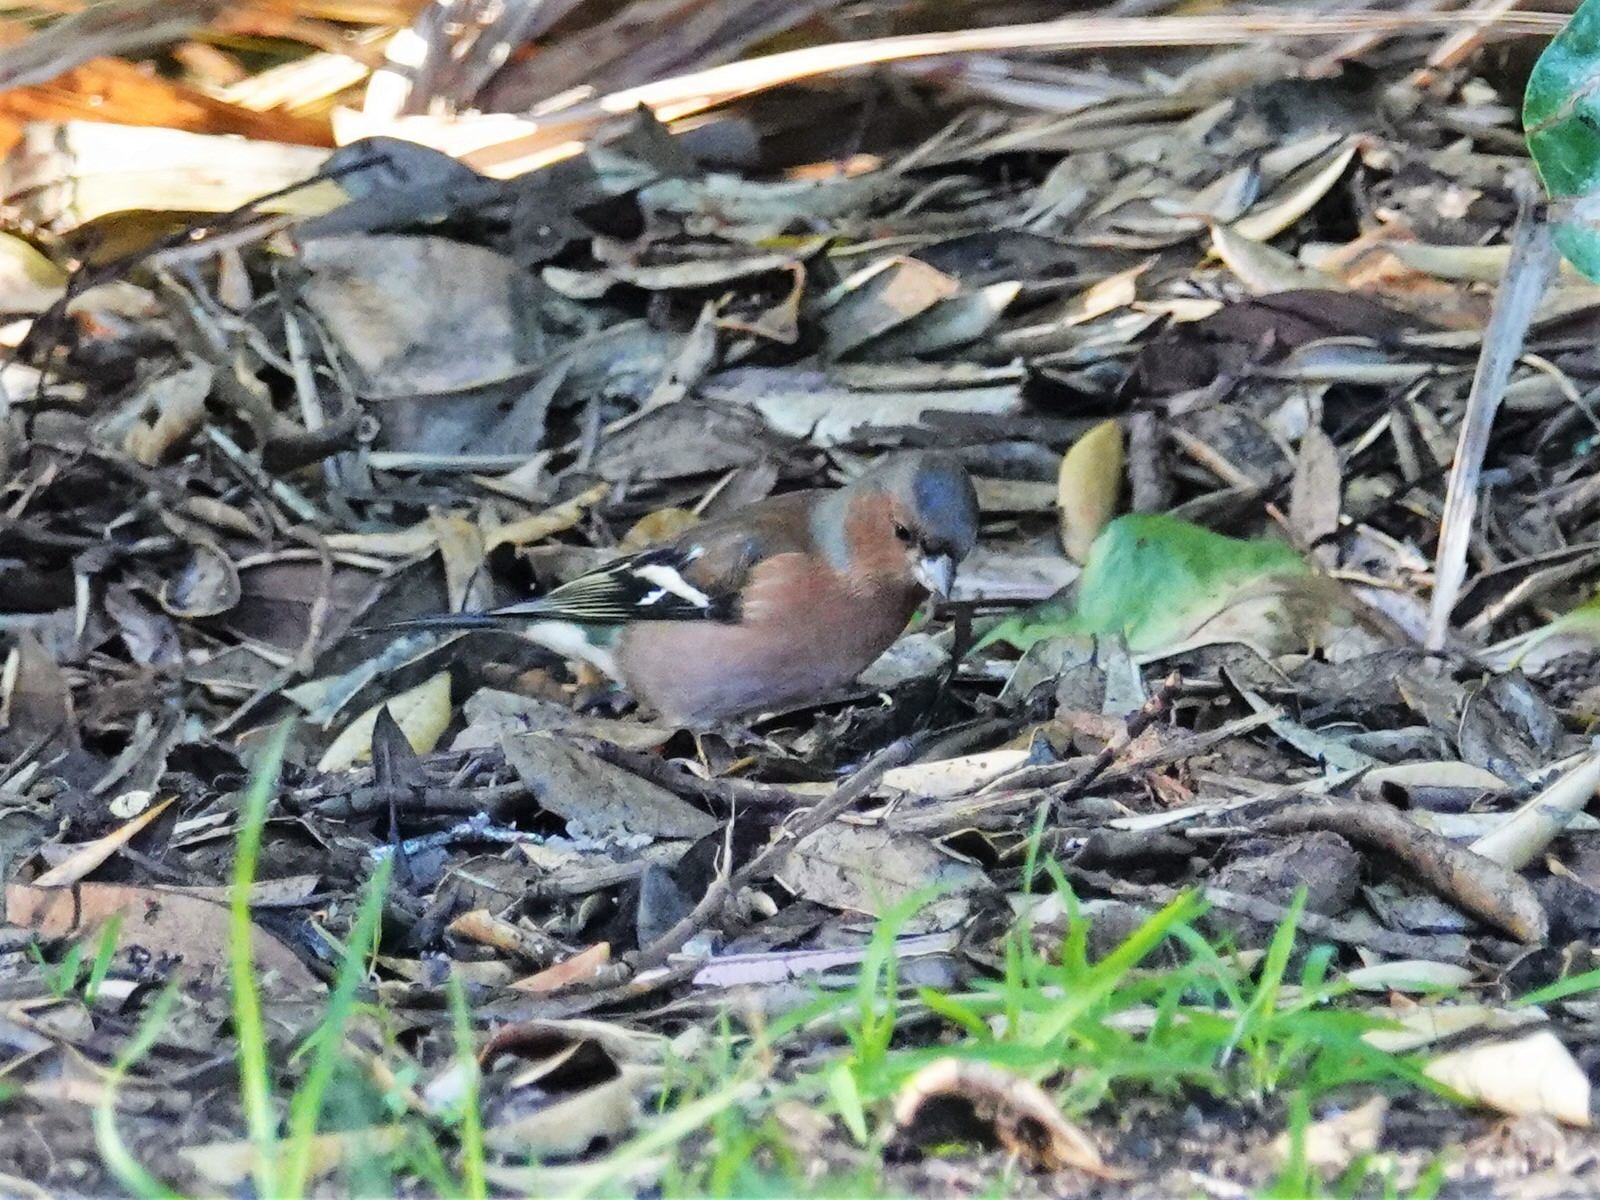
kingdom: Animalia
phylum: Chordata
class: Aves
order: Passeriformes
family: Fringillidae
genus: Fringilla
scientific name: Fringilla coelebs
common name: Common chaffinch
